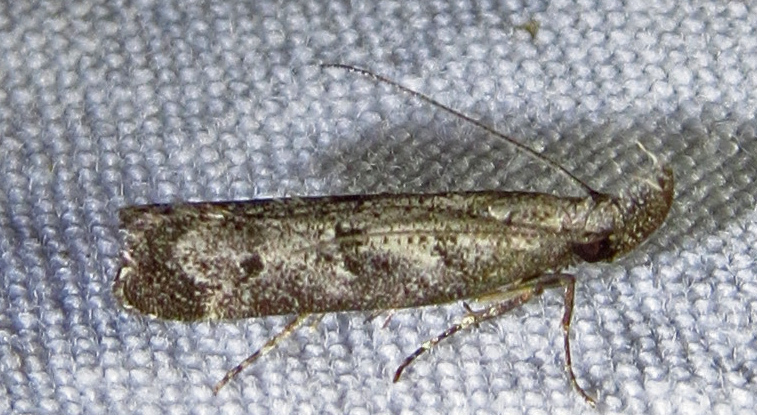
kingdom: Animalia
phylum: Arthropoda
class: Insecta
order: Lepidoptera
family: Gelechiidae
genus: Dichomeris
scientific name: Dichomeris inversella
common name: Inverse dichomeris moth
